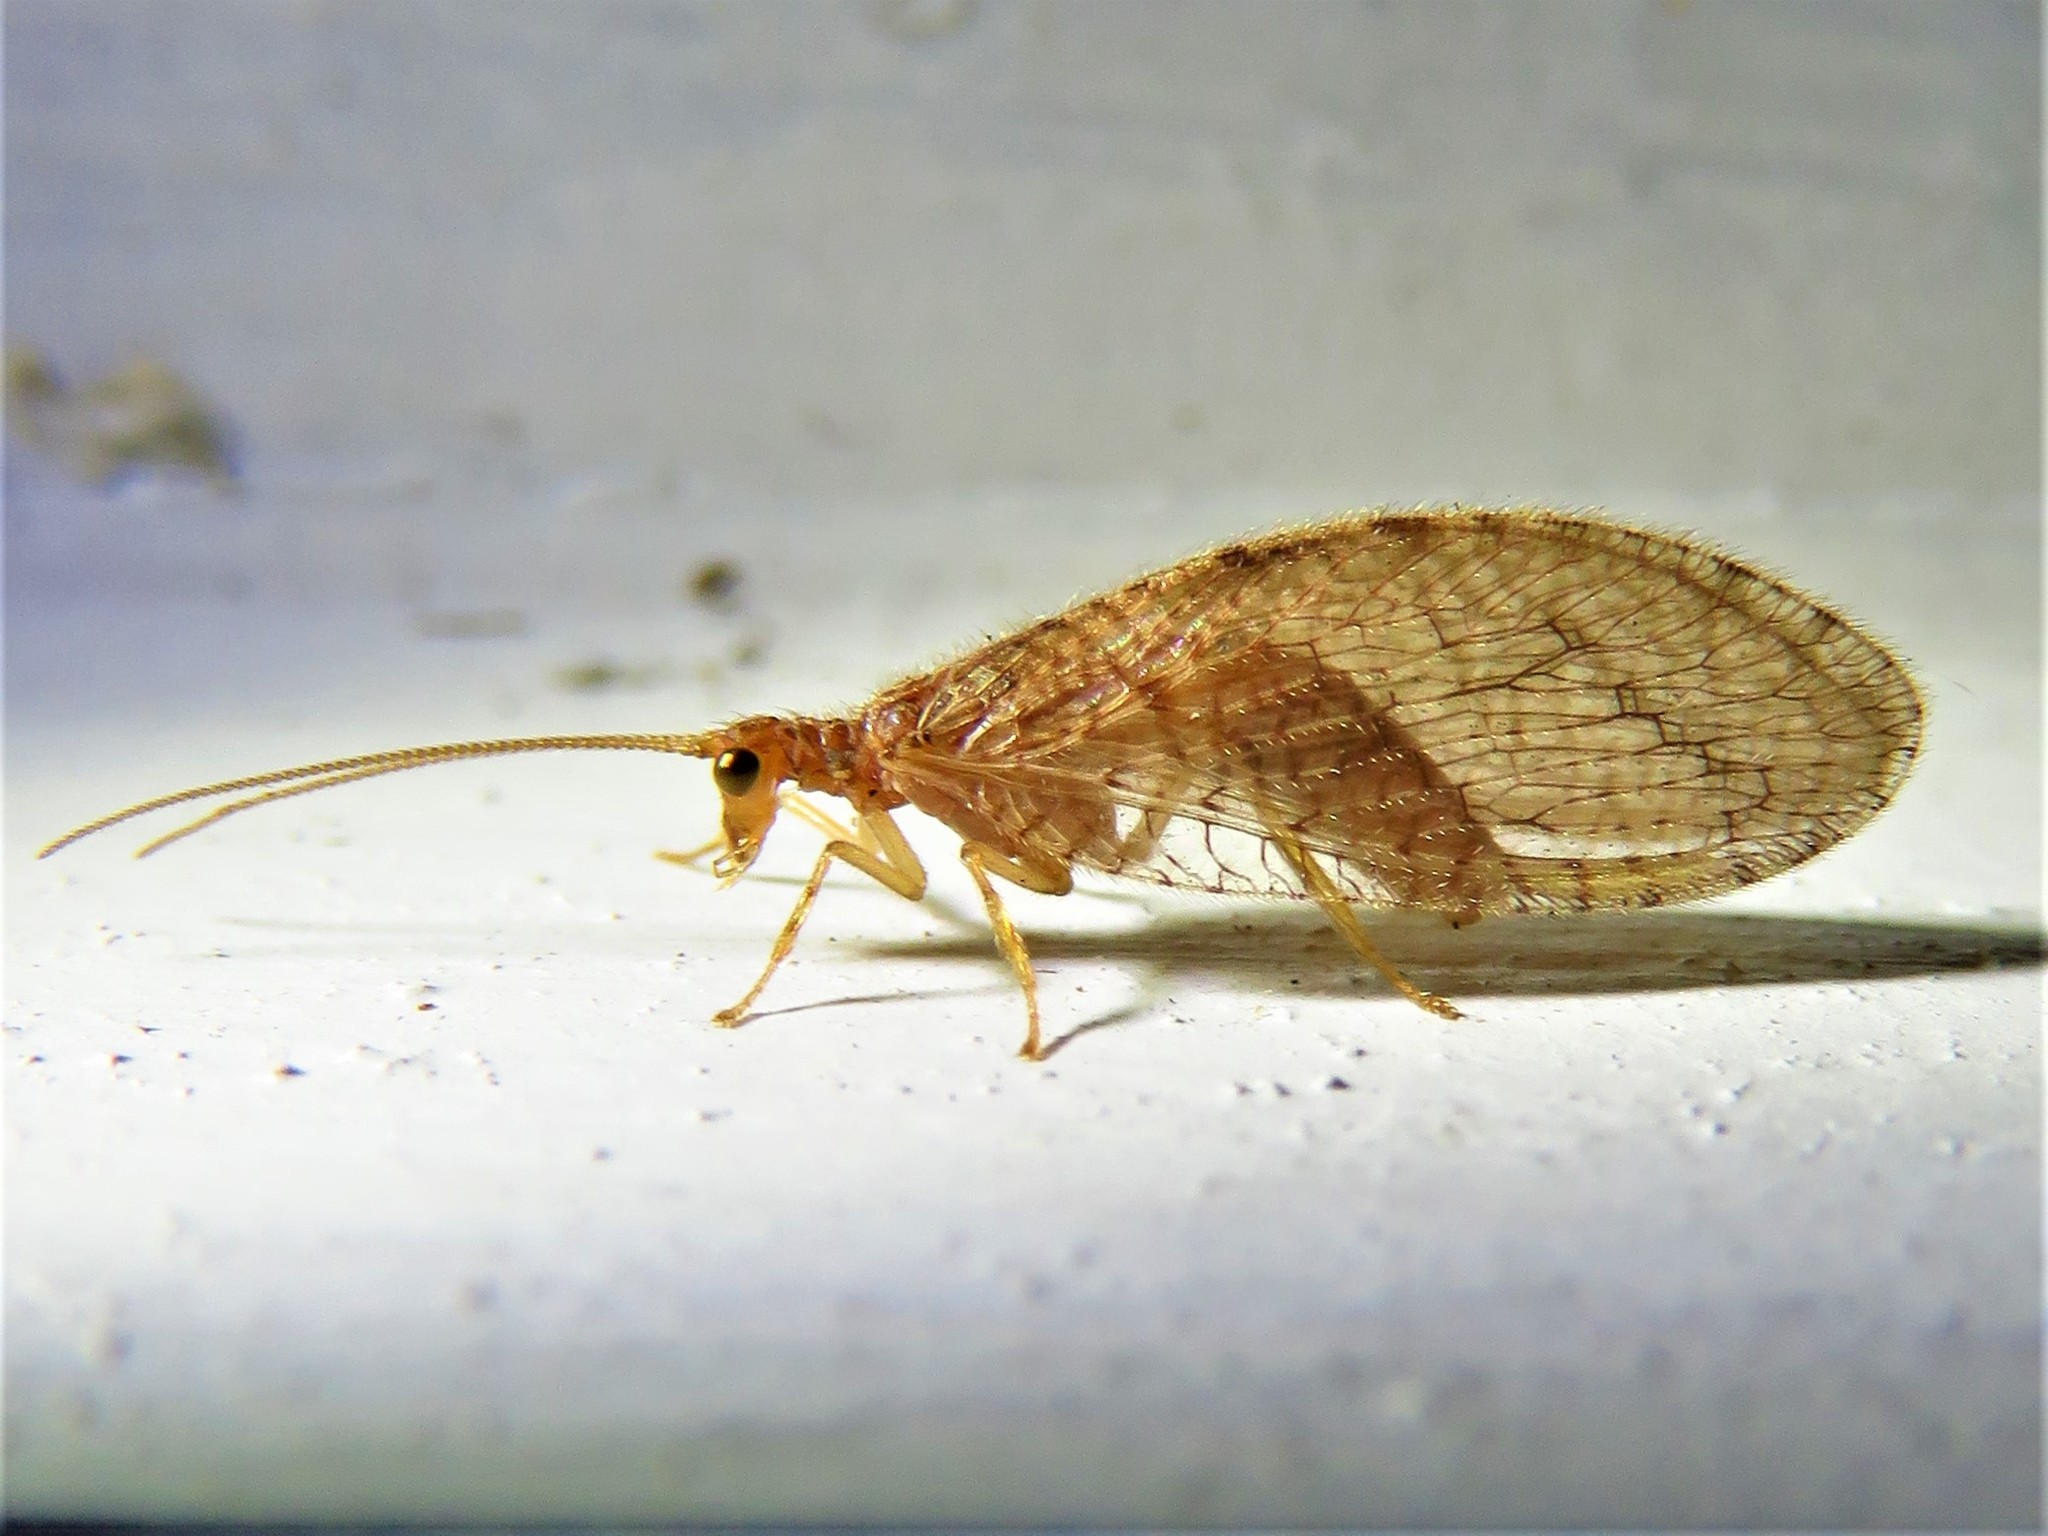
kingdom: Animalia
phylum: Arthropoda
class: Insecta
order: Neuroptera
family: Hemerobiidae
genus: Micromus
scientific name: Micromus posticus
